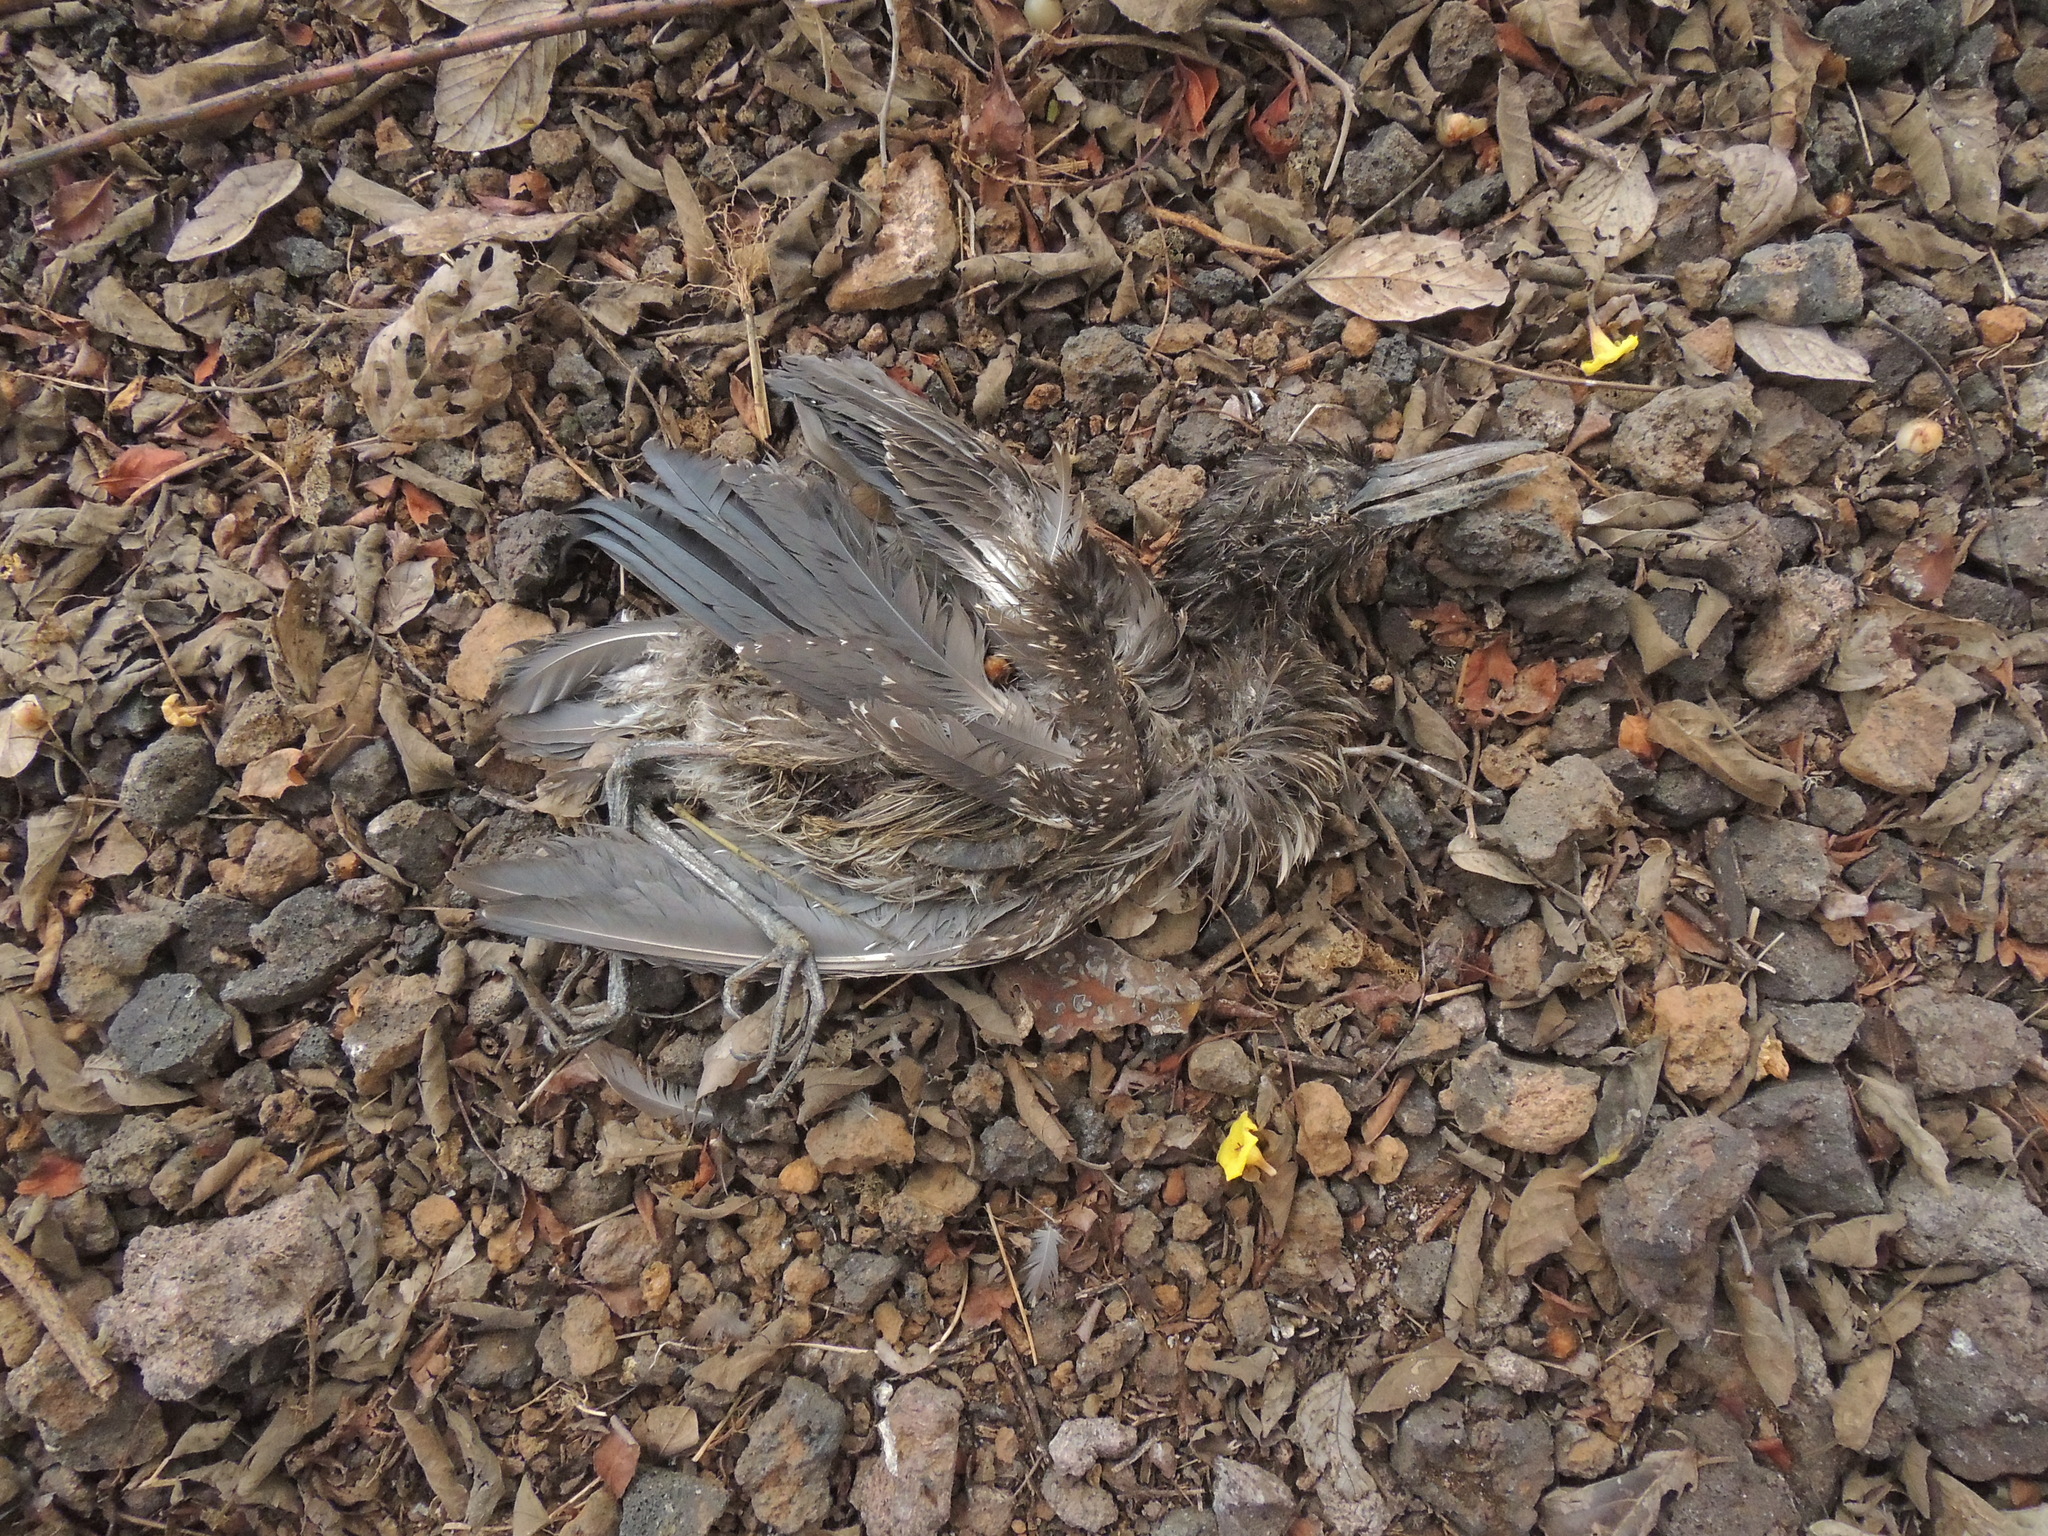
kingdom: Animalia
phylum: Chordata
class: Aves
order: Pelecaniformes
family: Ardeidae
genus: Nyctanassa
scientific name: Nyctanassa violacea
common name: Yellow-crowned night heron
